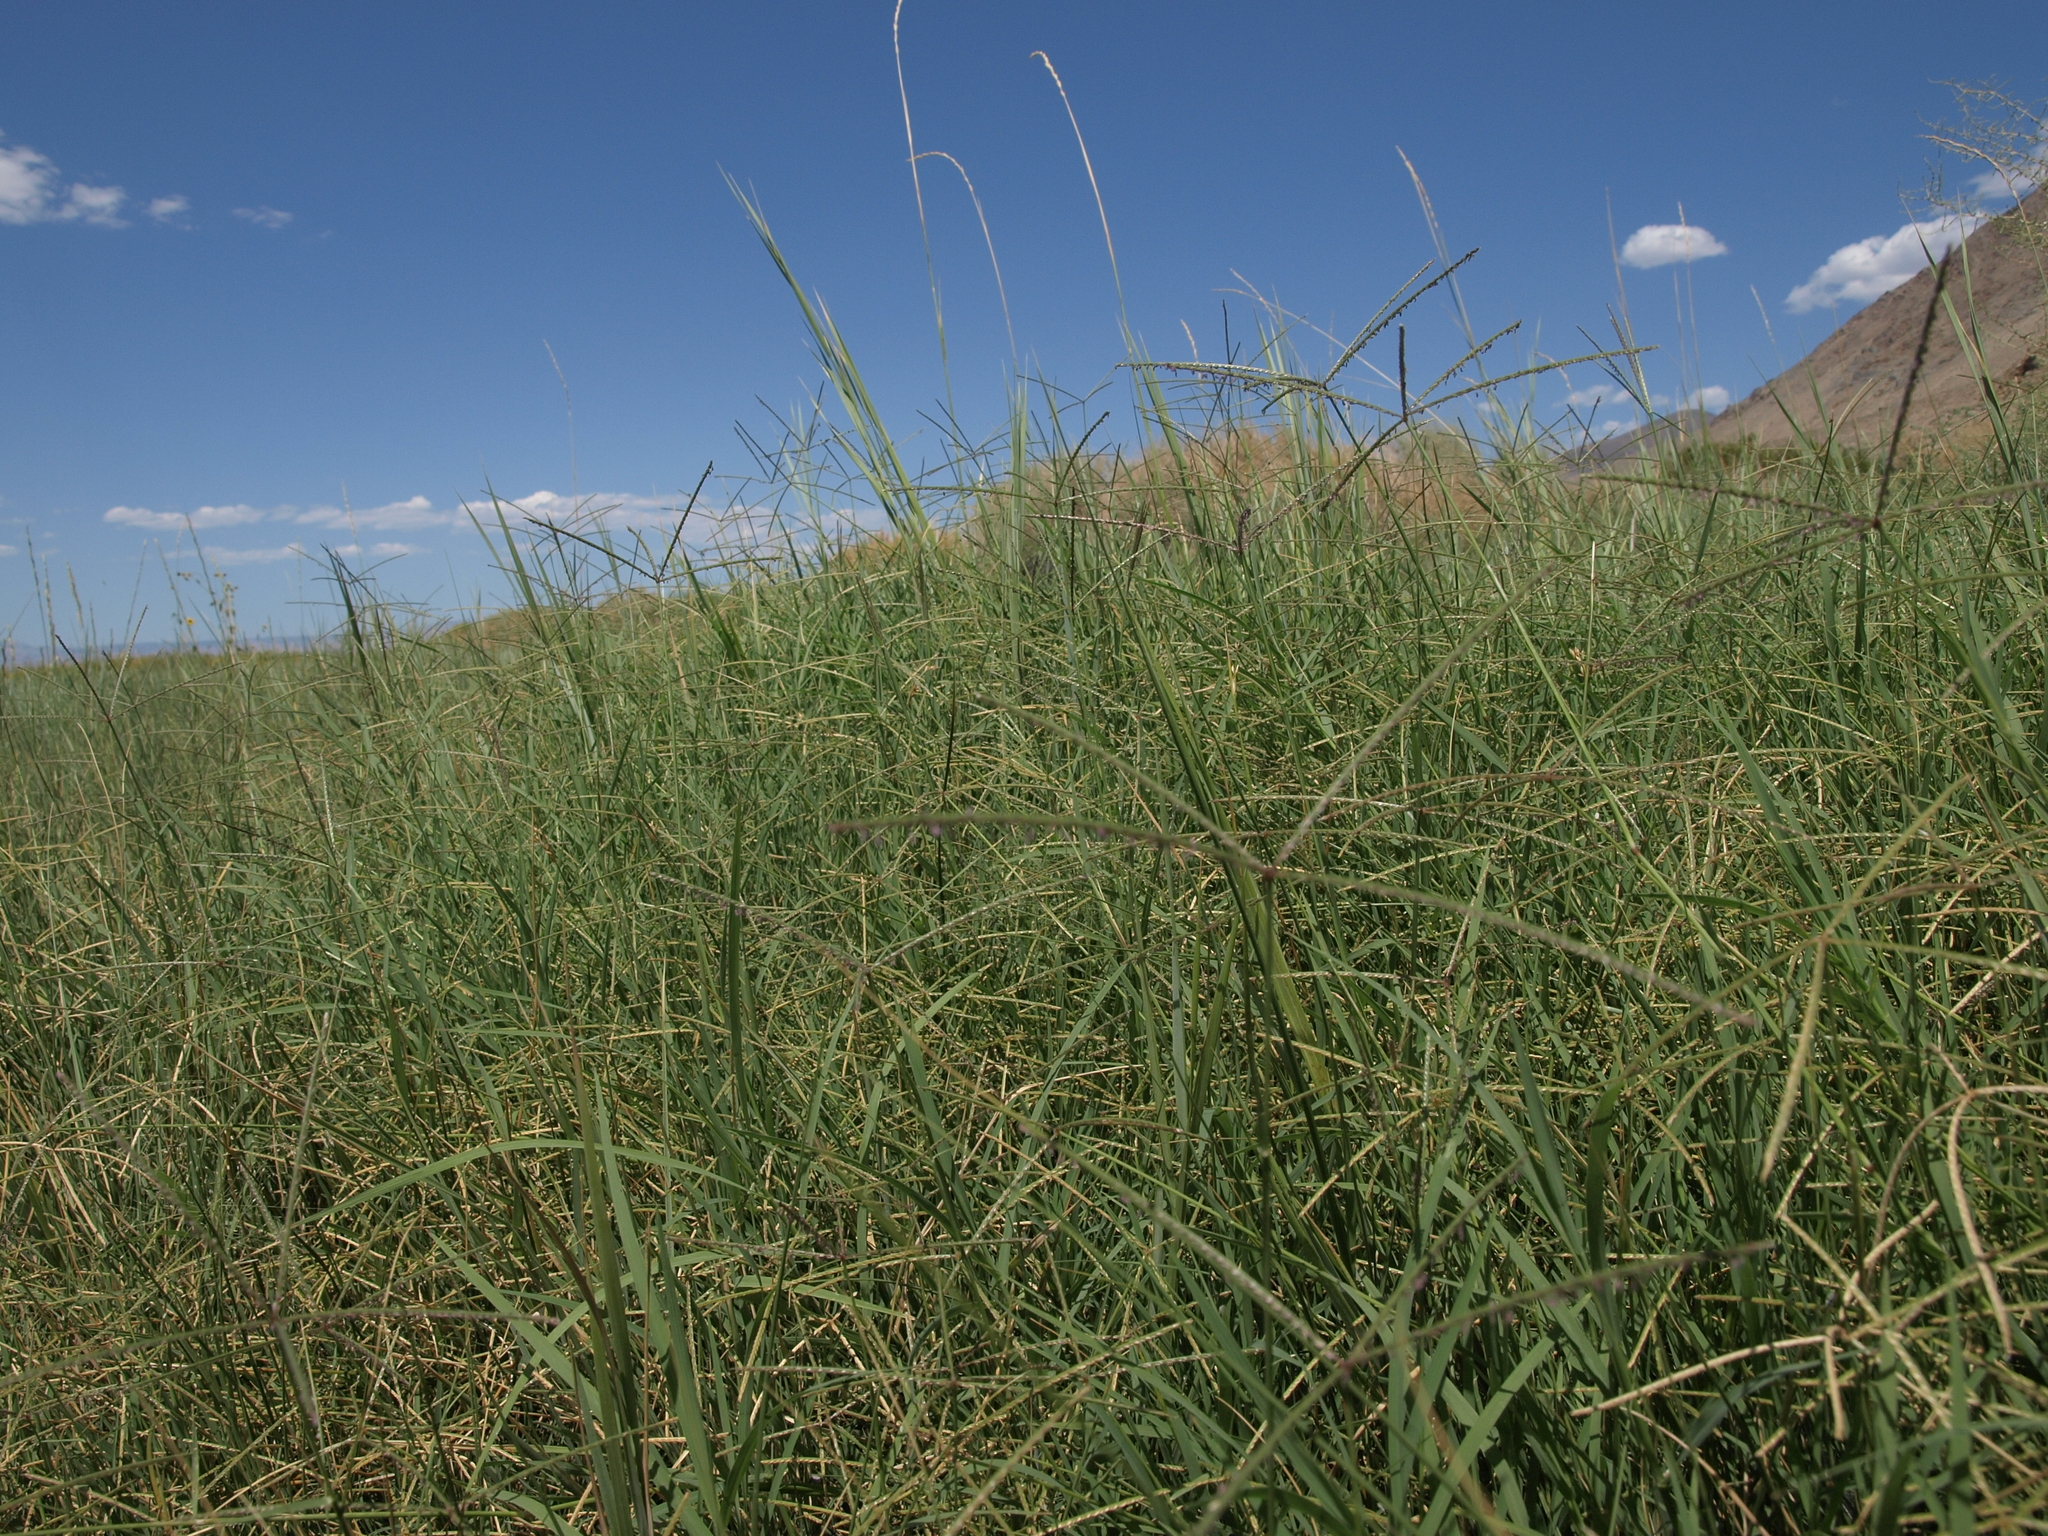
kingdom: Plantae
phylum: Tracheophyta
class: Liliopsida
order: Poales
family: Poaceae
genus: Cynodon
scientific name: Cynodon dactylon
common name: Bermuda grass
